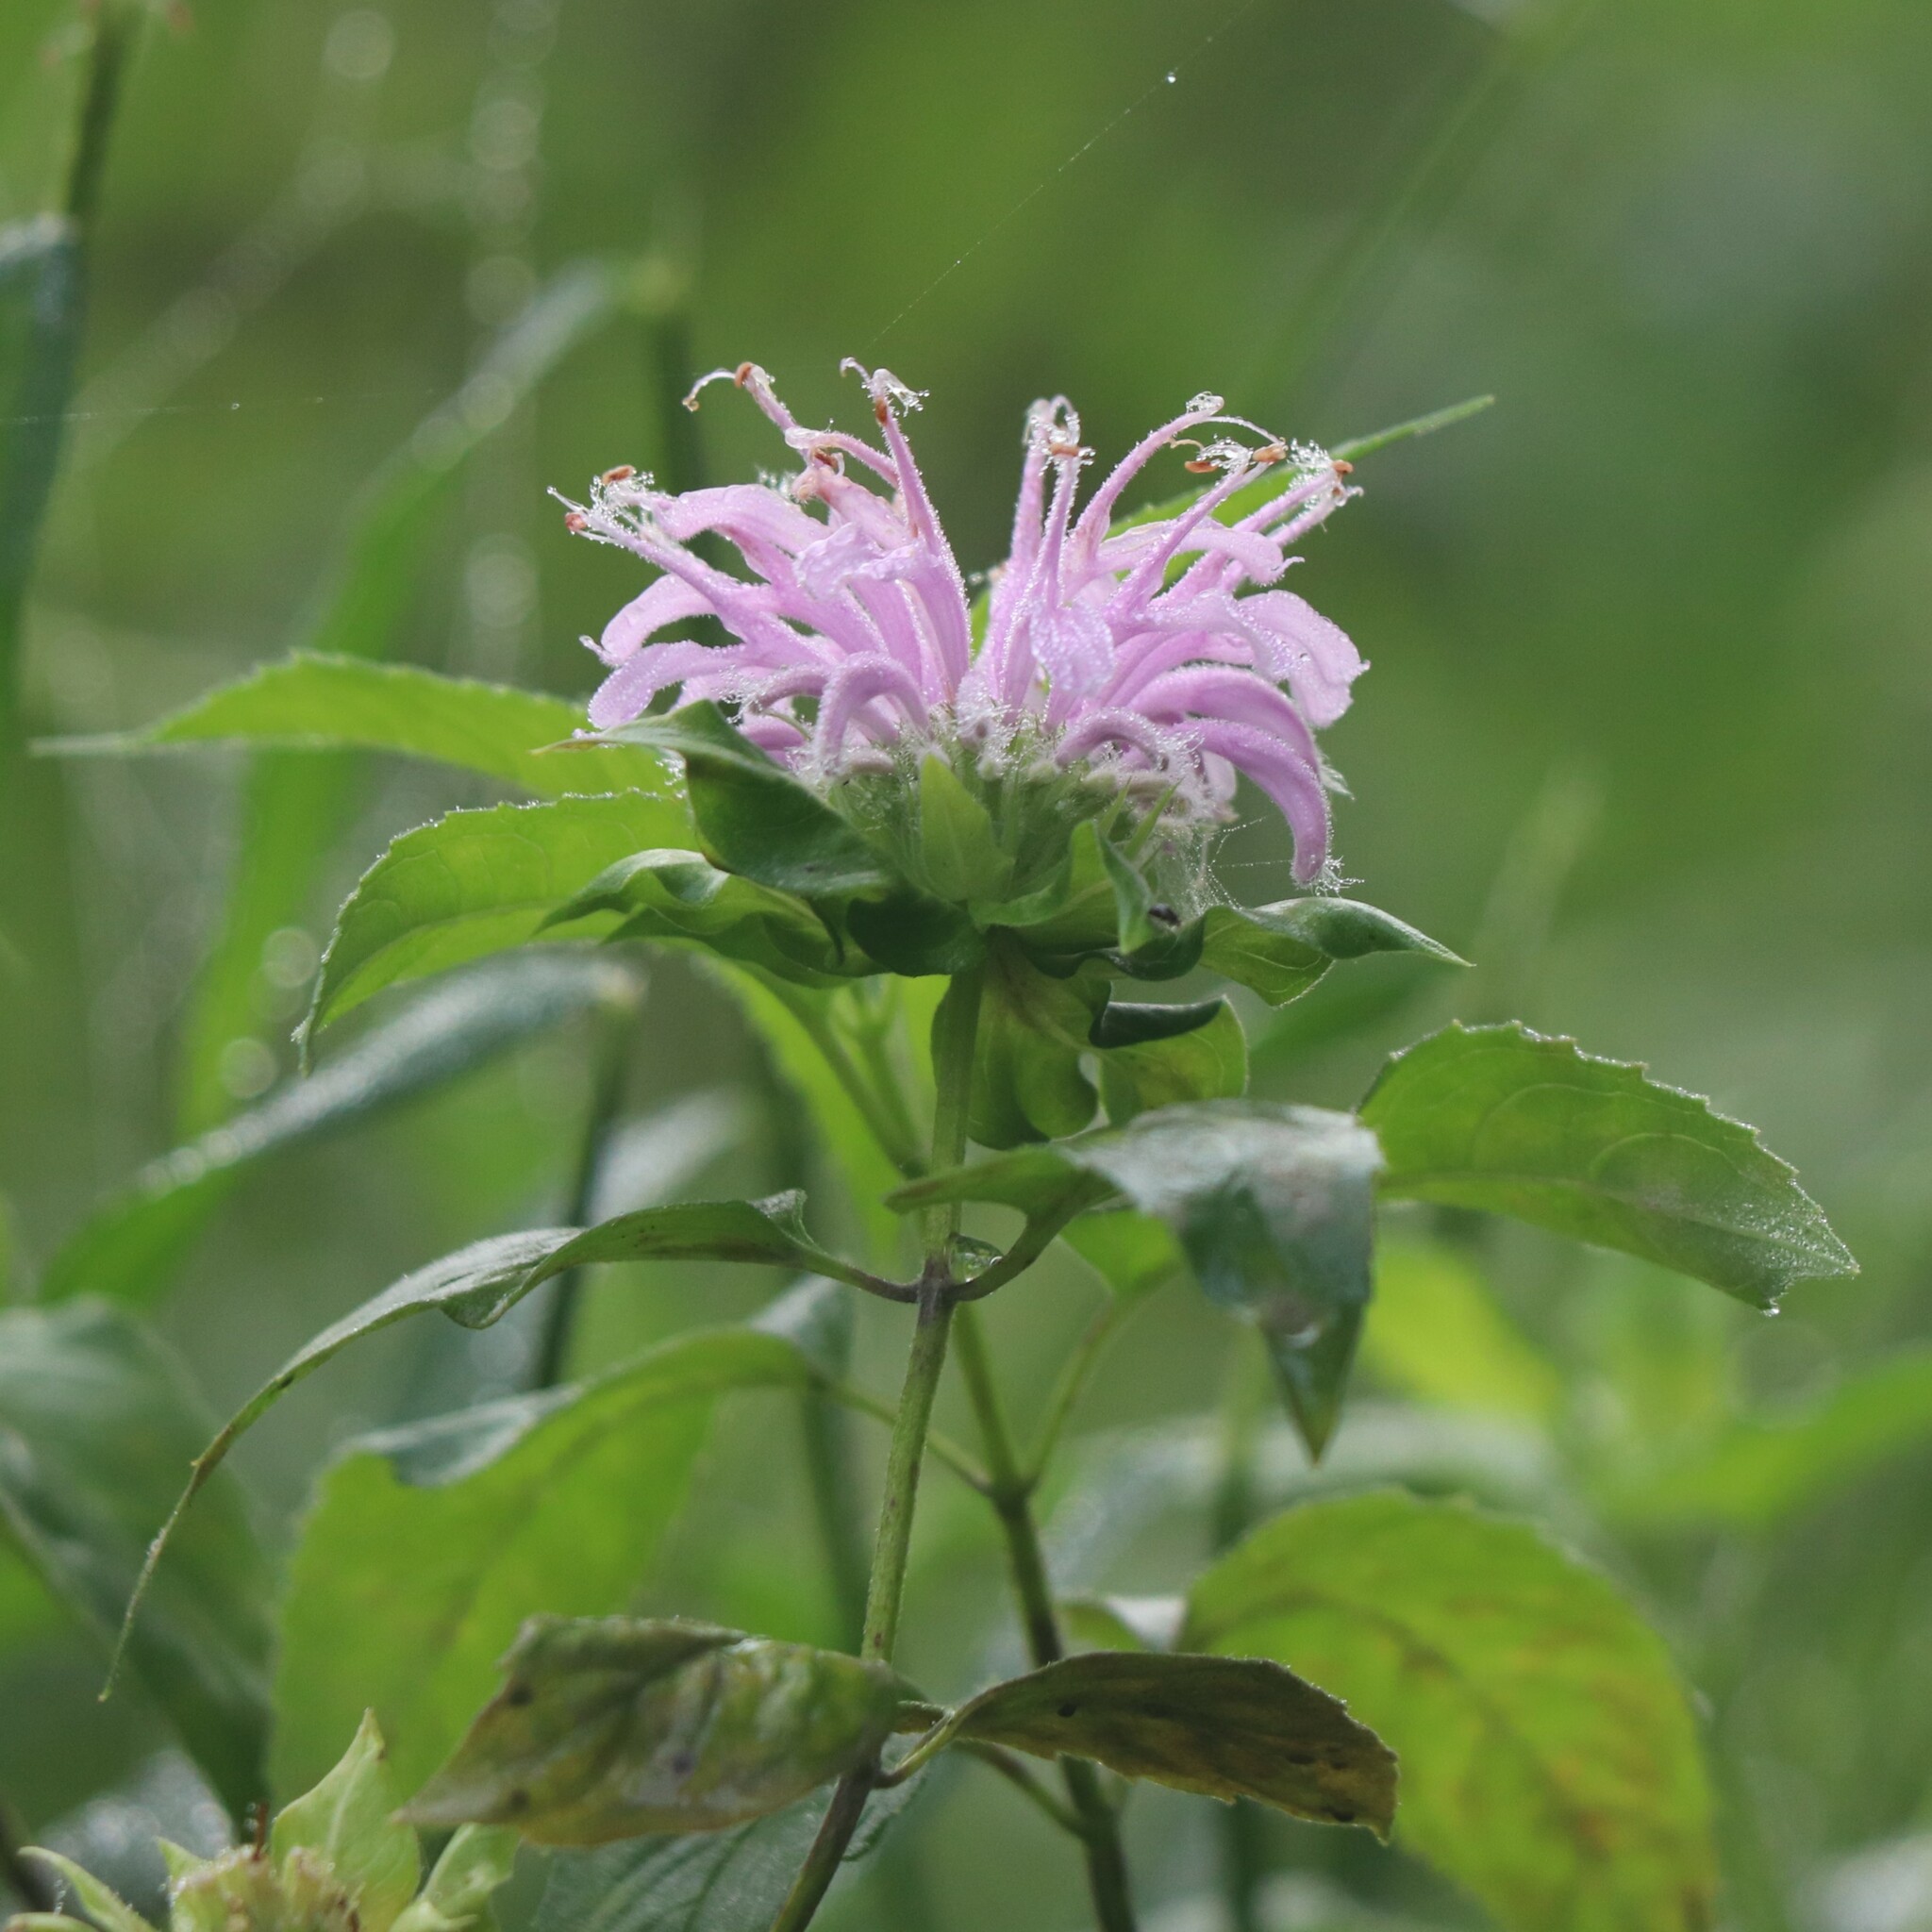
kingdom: Plantae
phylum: Tracheophyta
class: Magnoliopsida
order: Lamiales
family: Lamiaceae
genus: Monarda
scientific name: Monarda fistulosa
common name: Purple beebalm
